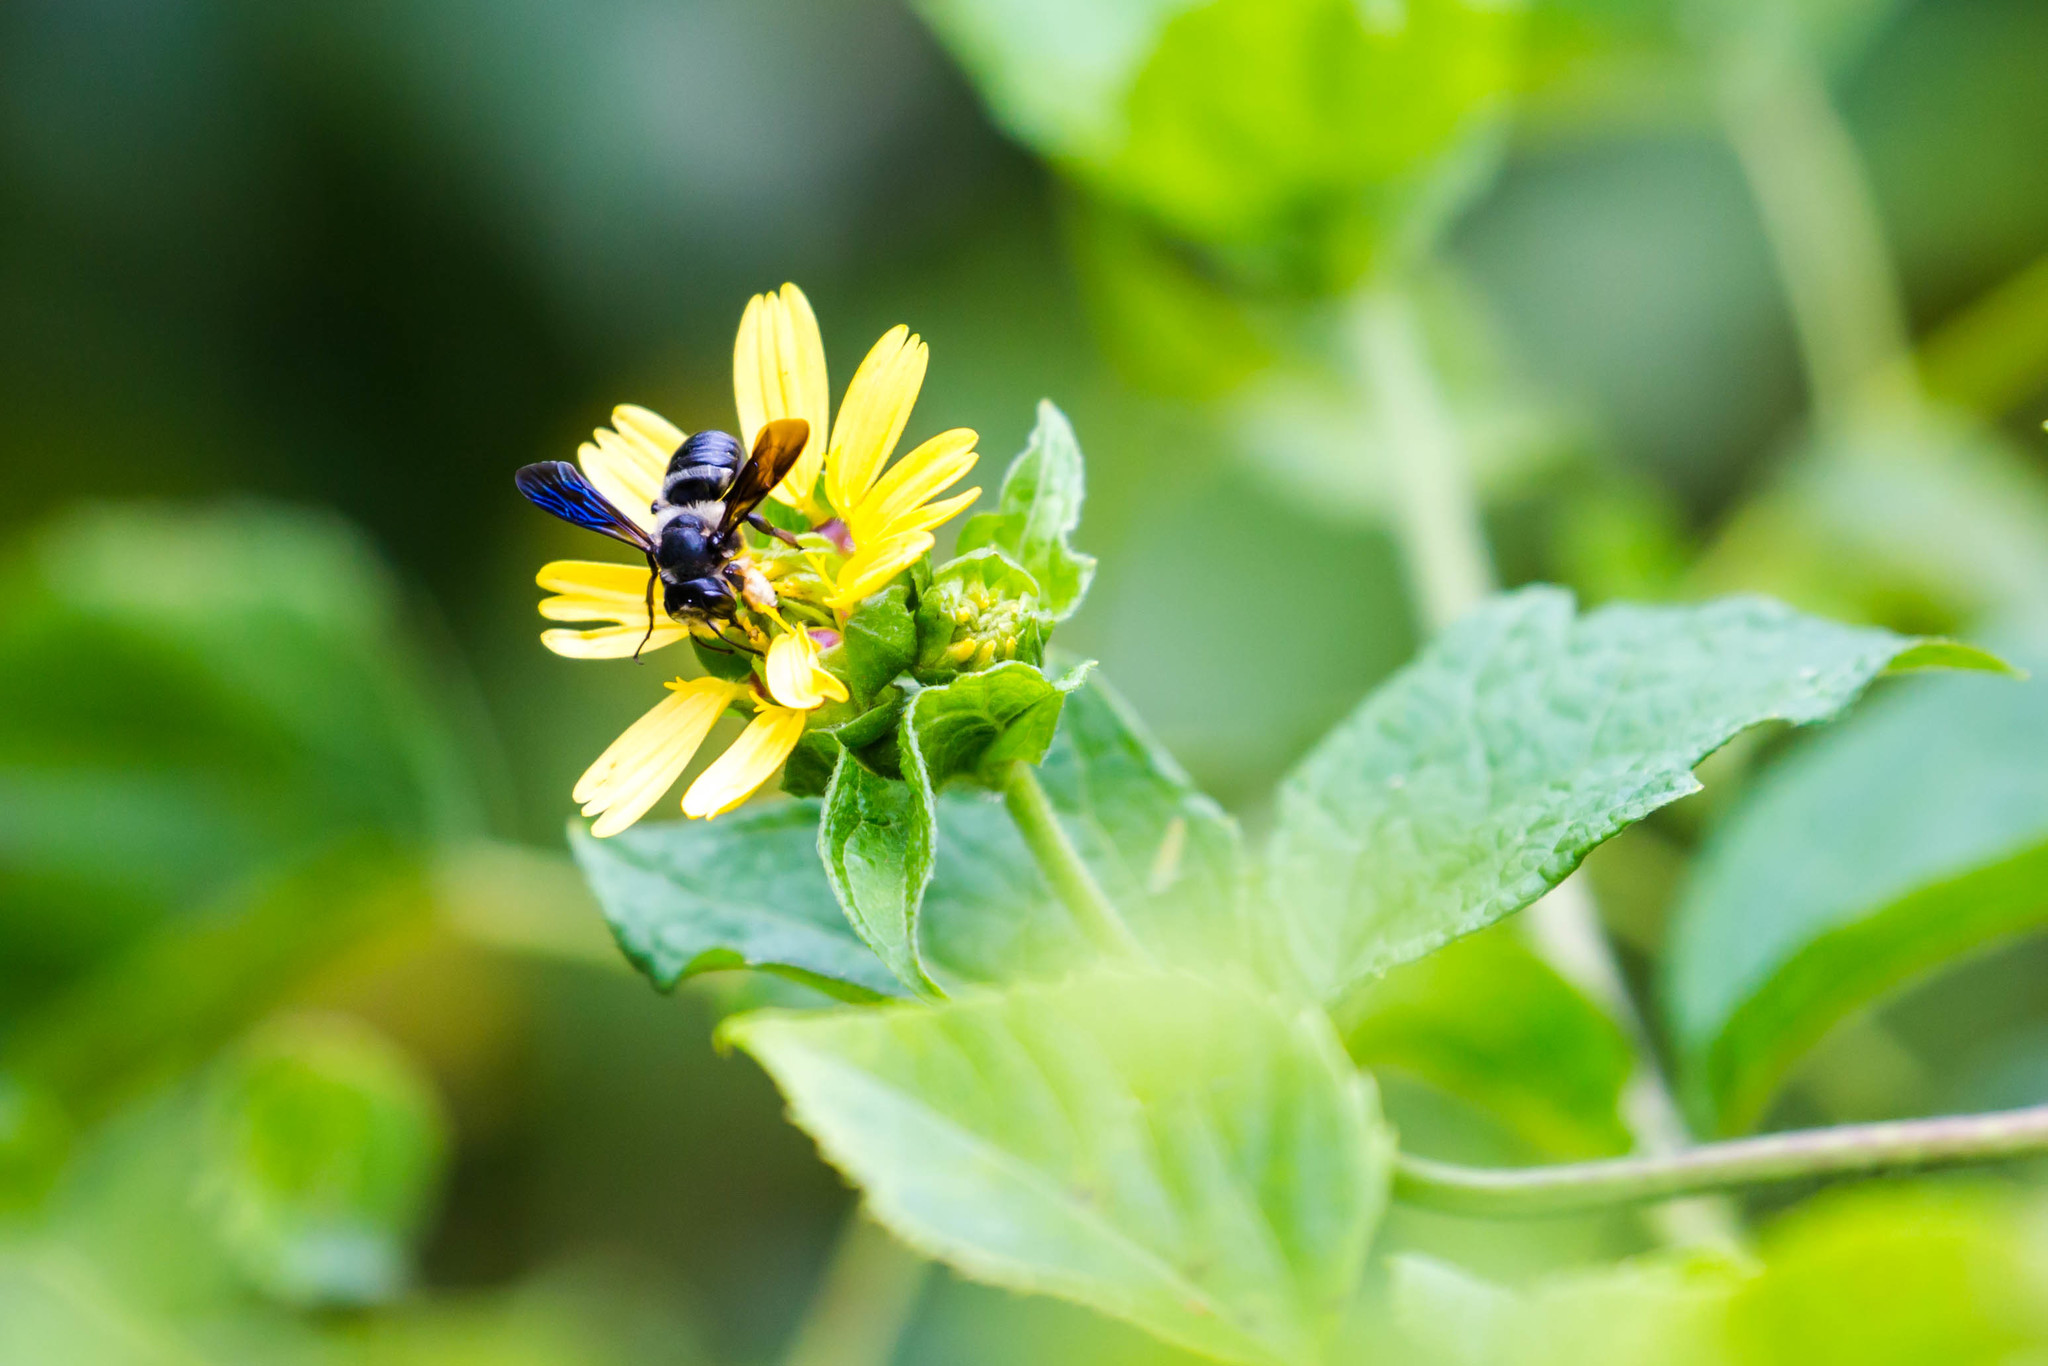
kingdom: Animalia
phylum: Arthropoda
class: Insecta
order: Hymenoptera
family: Megachilidae
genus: Megachile
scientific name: Megachile xylocopoides
